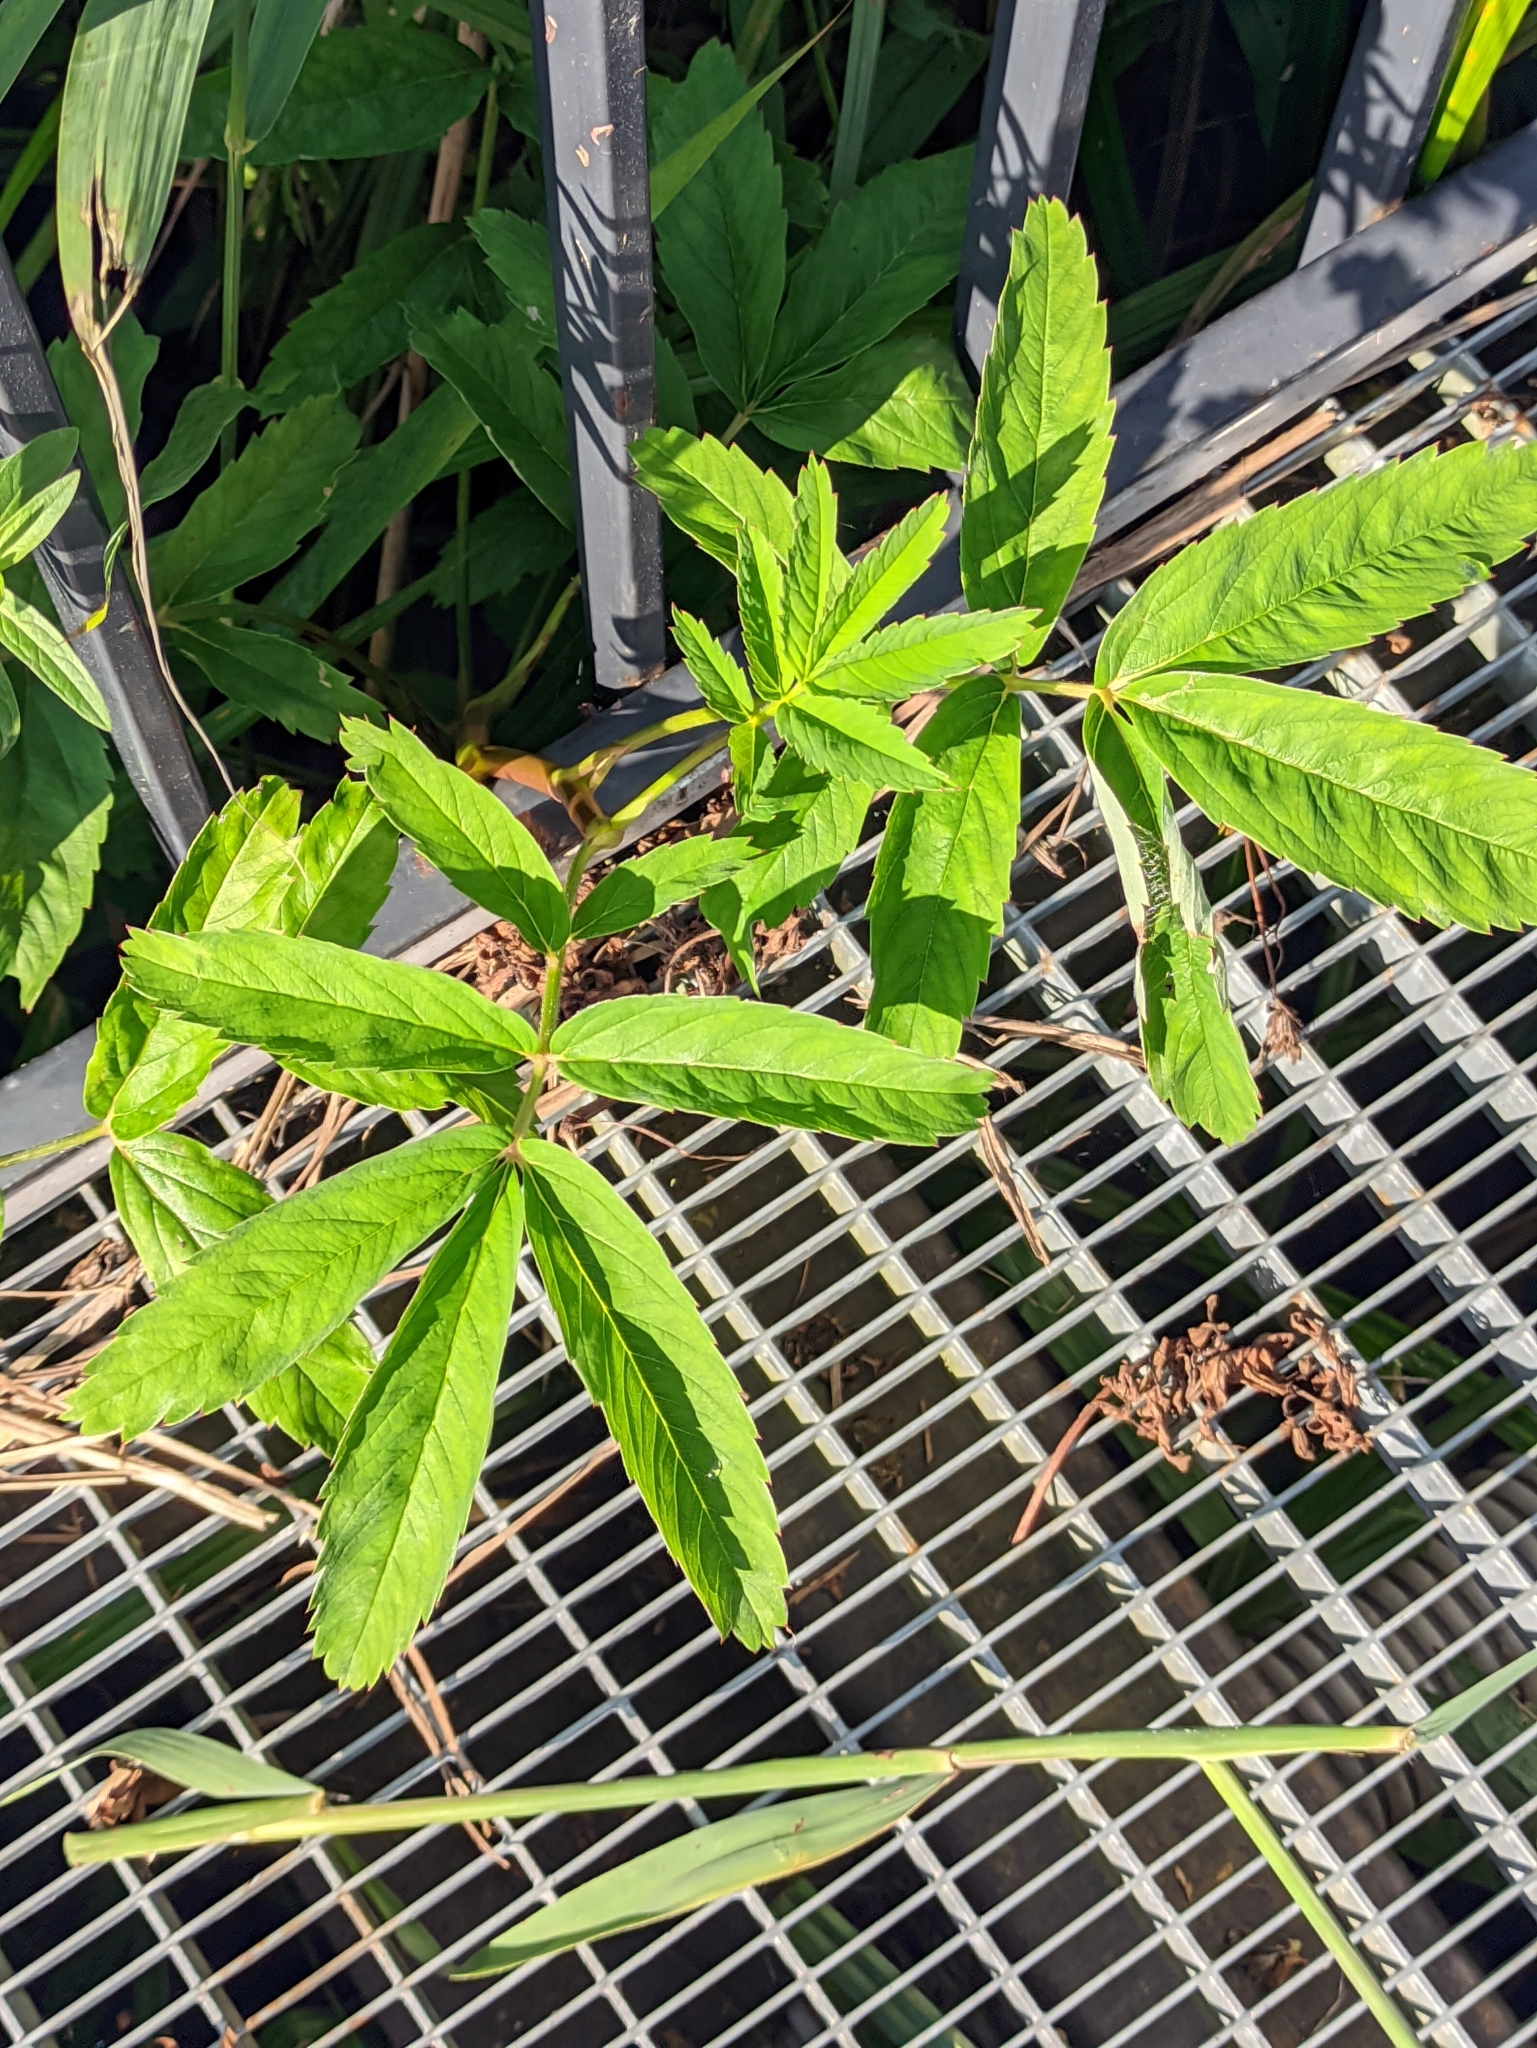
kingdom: Plantae
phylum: Tracheophyta
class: Magnoliopsida
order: Rosales
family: Rosaceae
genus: Comarum
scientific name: Comarum palustre
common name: Marsh cinquefoil
